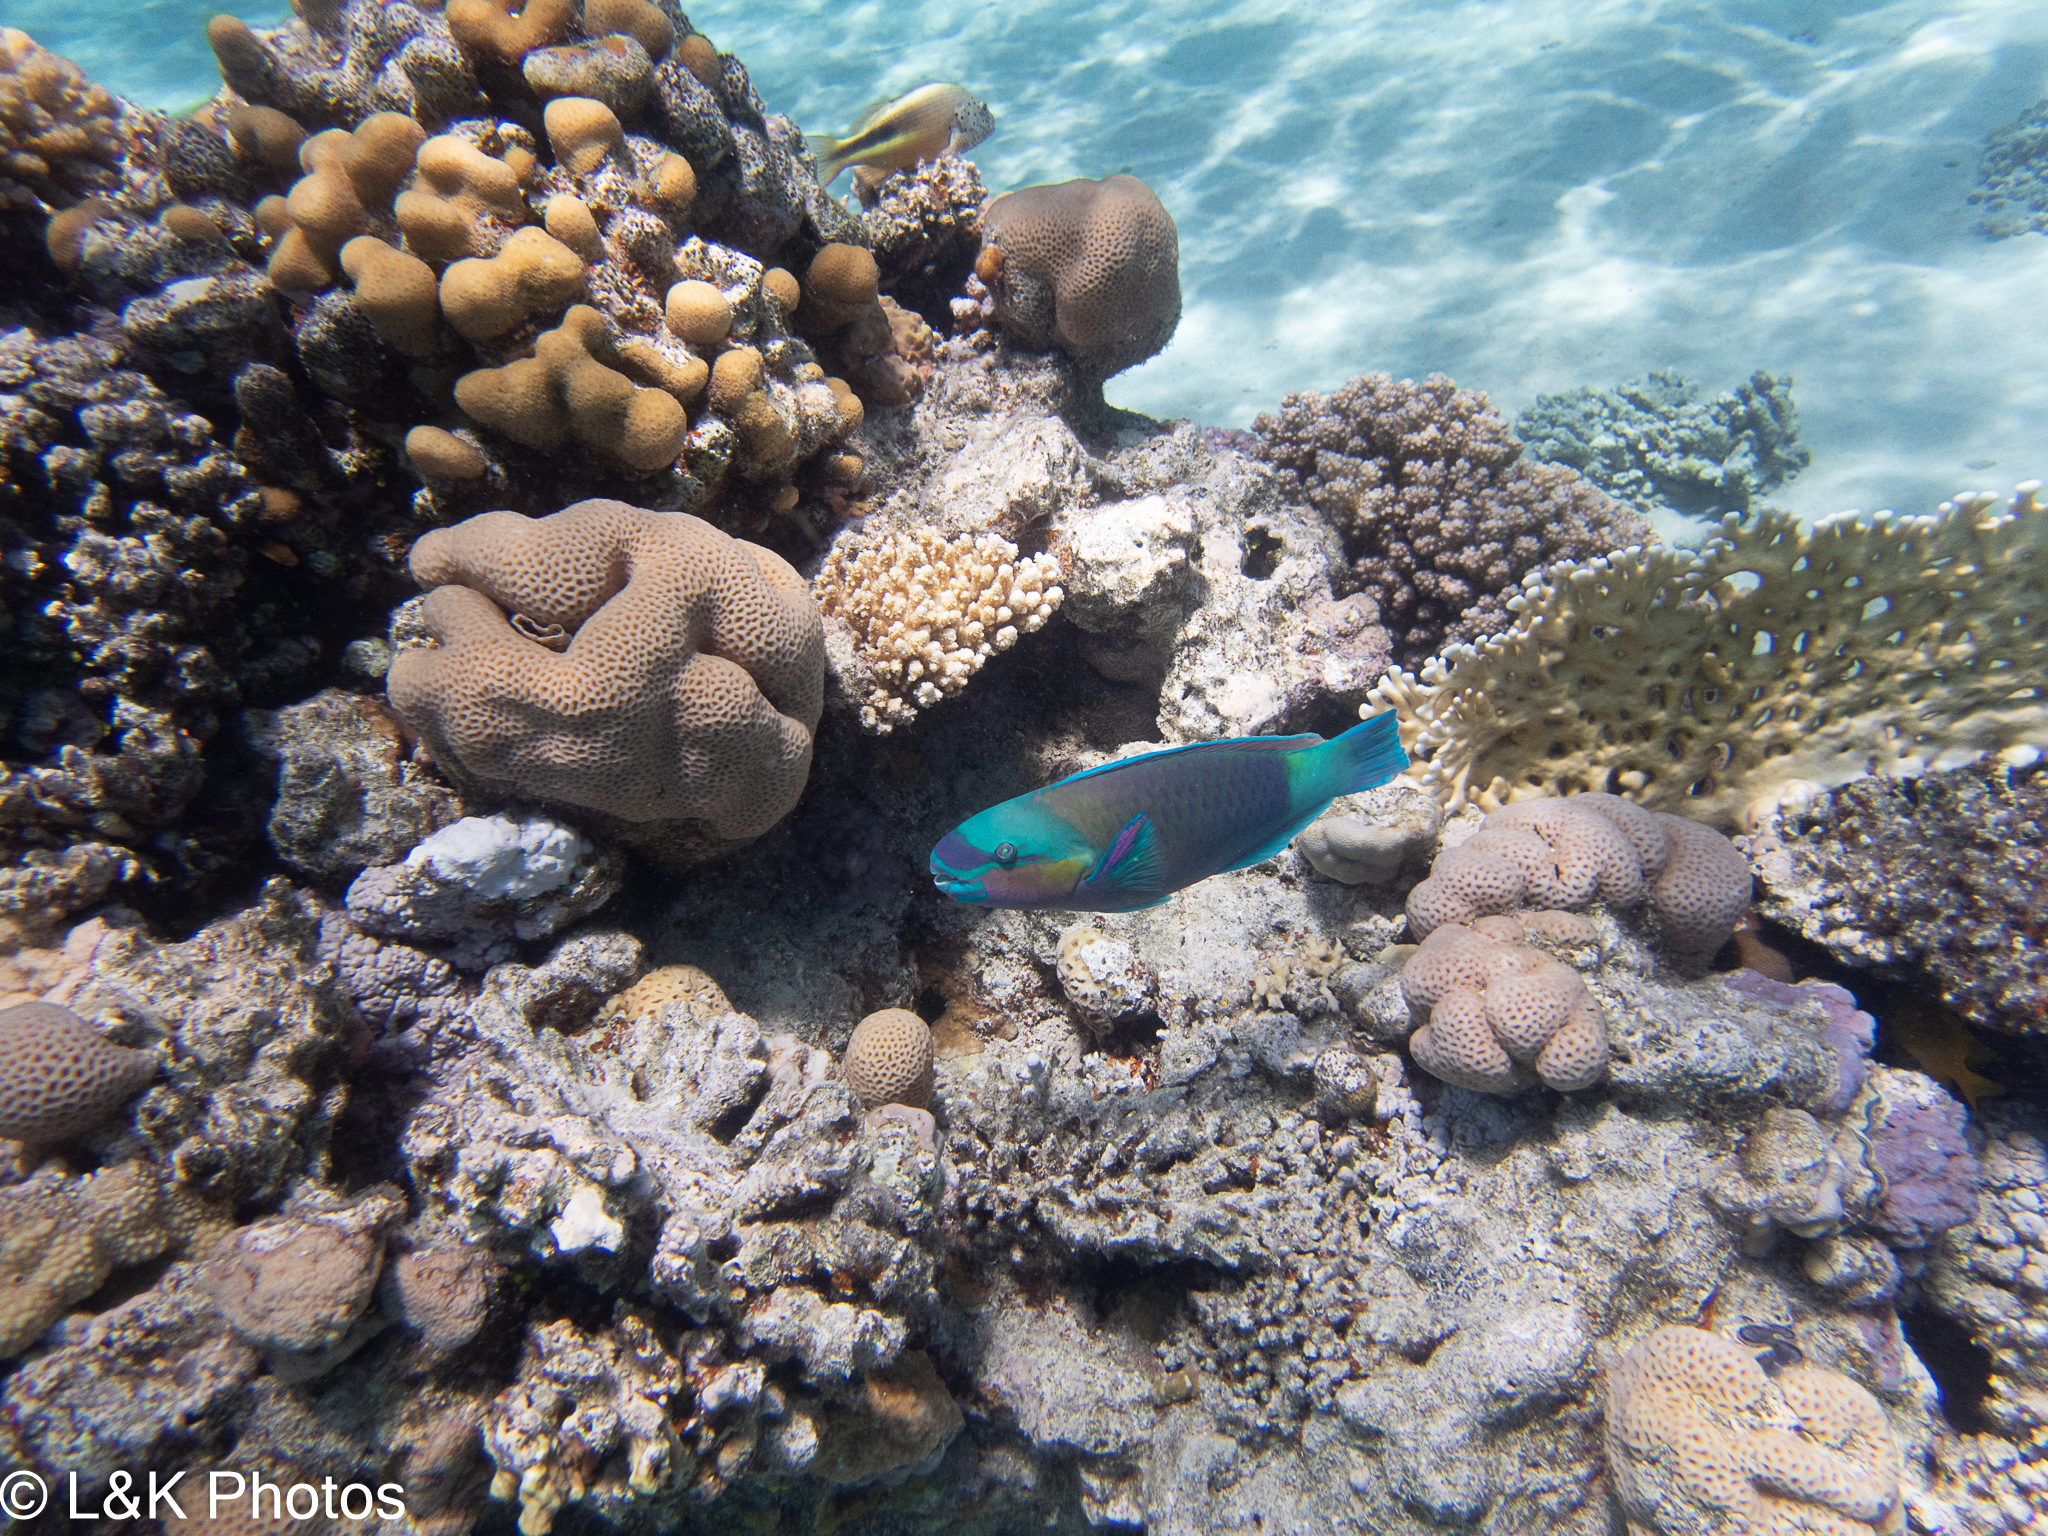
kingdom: Animalia
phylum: Chordata
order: Perciformes
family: Scaridae
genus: Chlorurus
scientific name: Chlorurus sordidus
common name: Bullethead parrotfish
